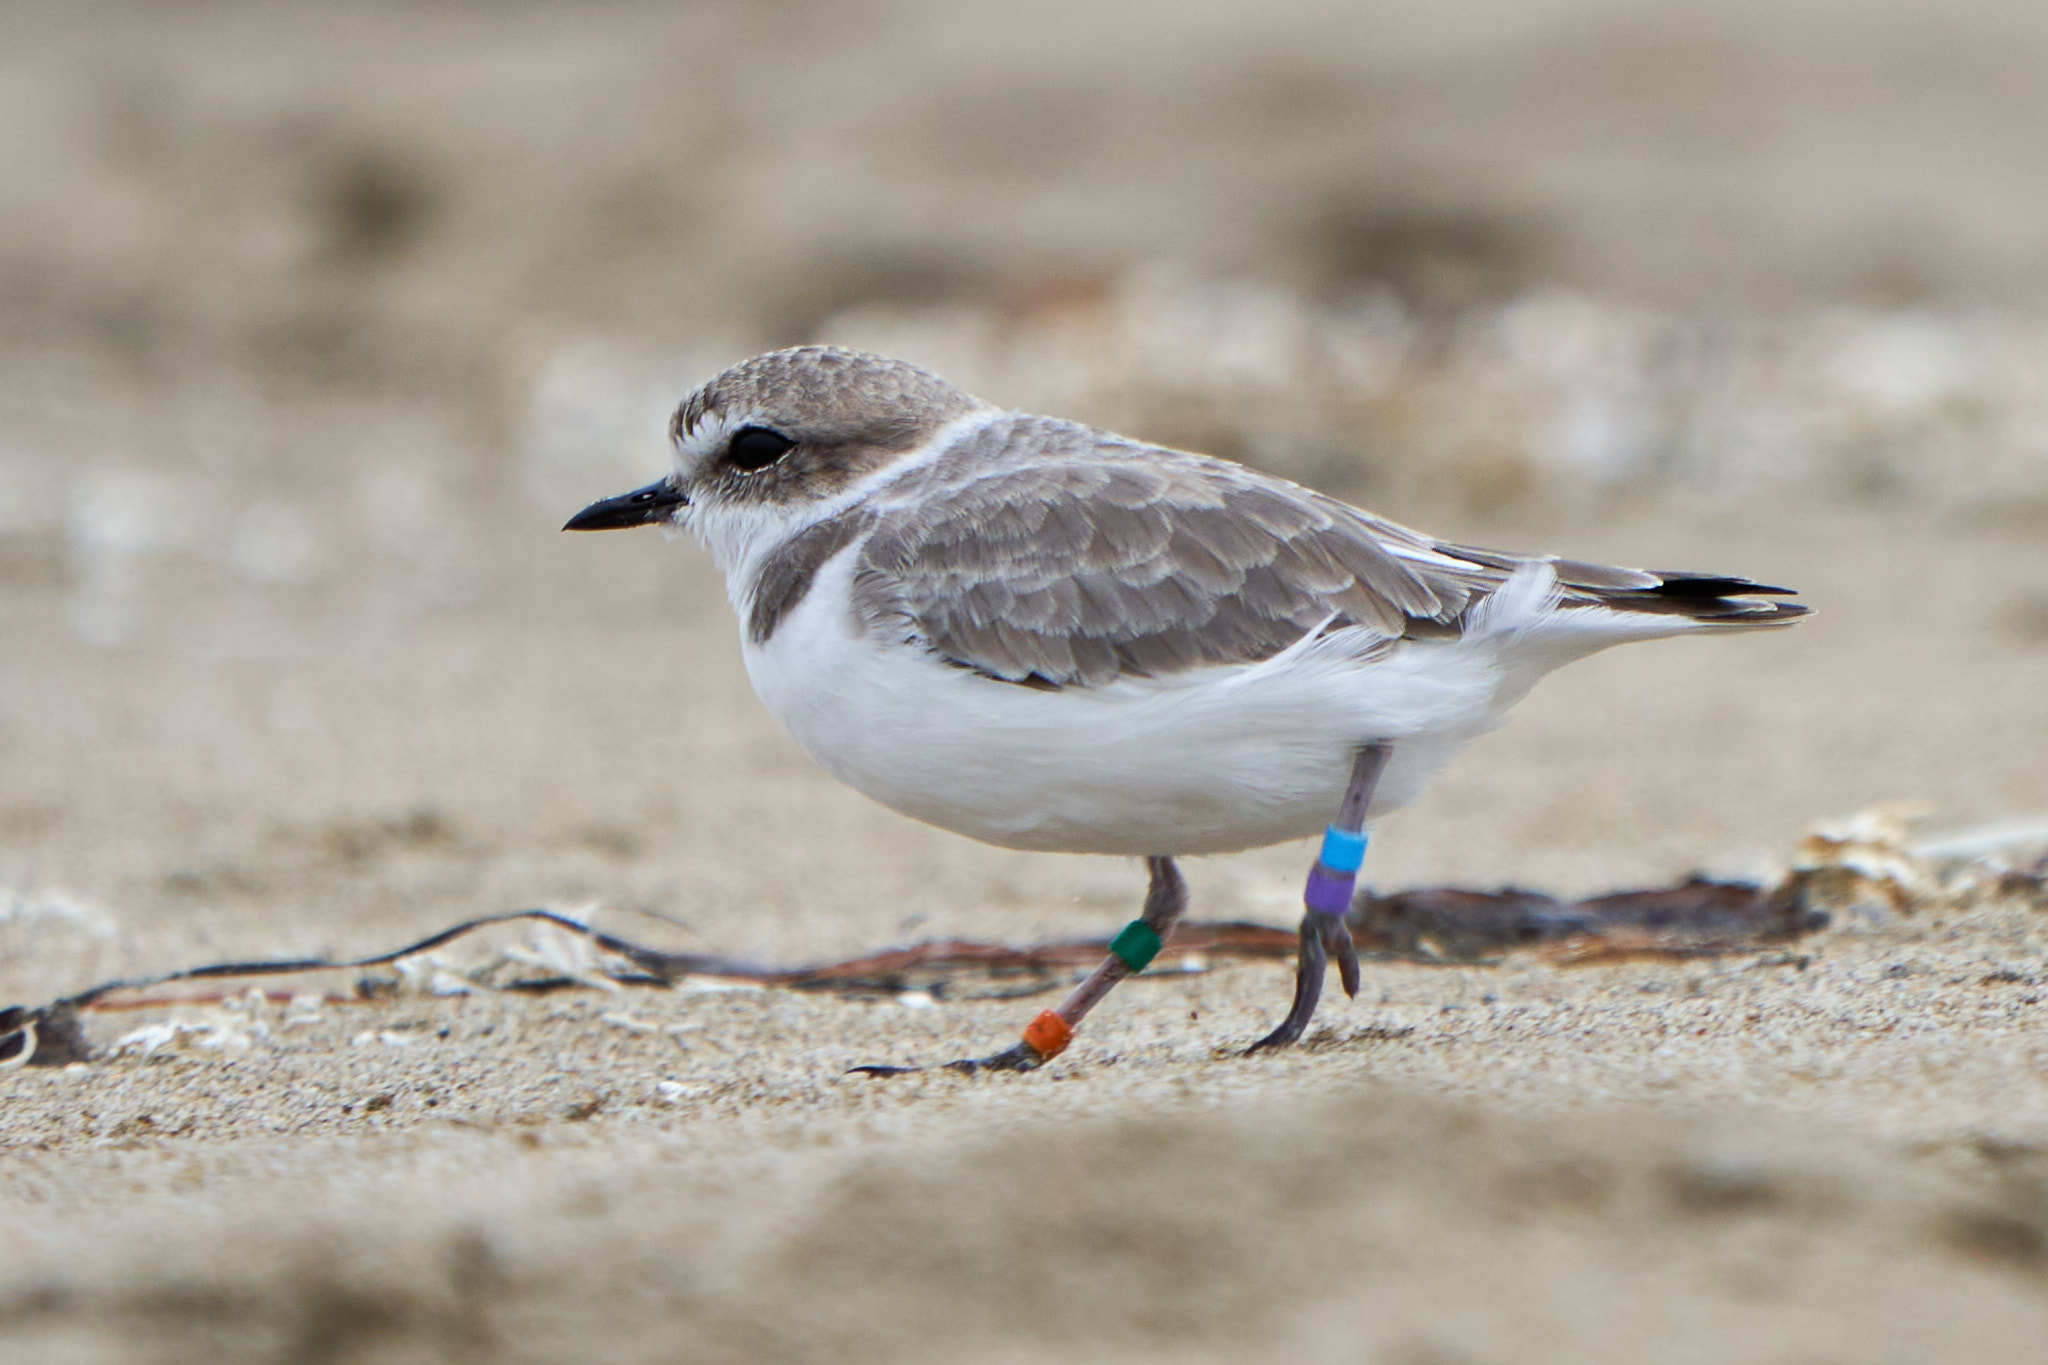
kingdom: Animalia
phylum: Chordata
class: Aves
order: Charadriiformes
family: Charadriidae
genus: Anarhynchus
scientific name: Anarhynchus
